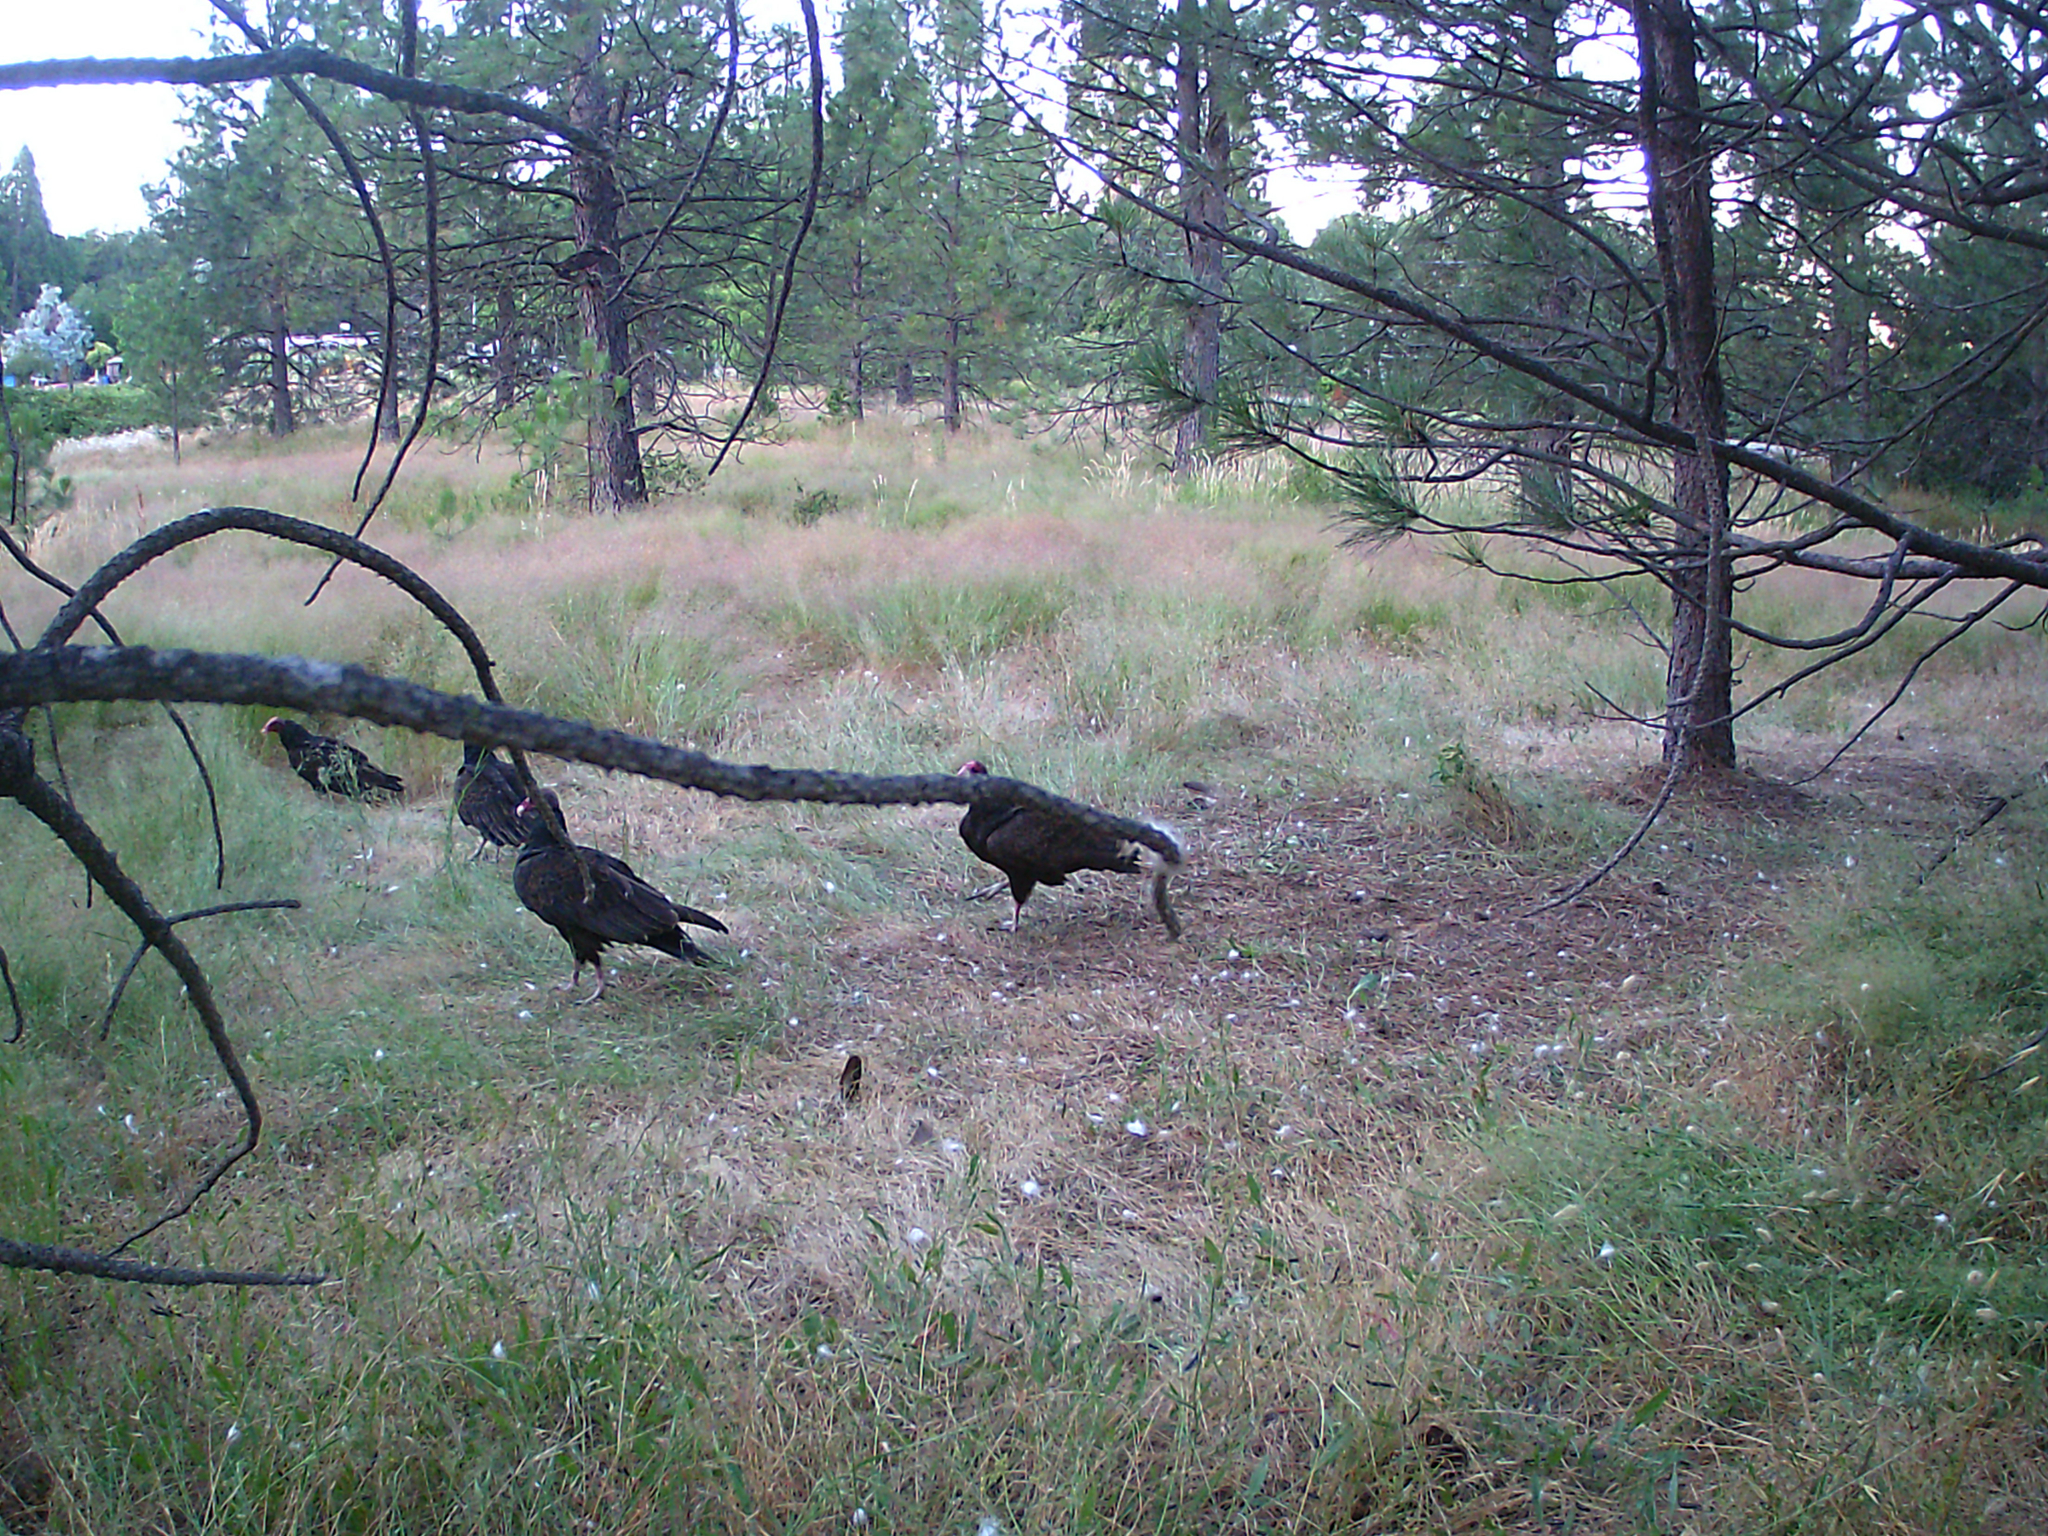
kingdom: Animalia
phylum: Chordata
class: Aves
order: Accipitriformes
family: Cathartidae
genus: Cathartes
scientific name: Cathartes aura
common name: Turkey vulture
